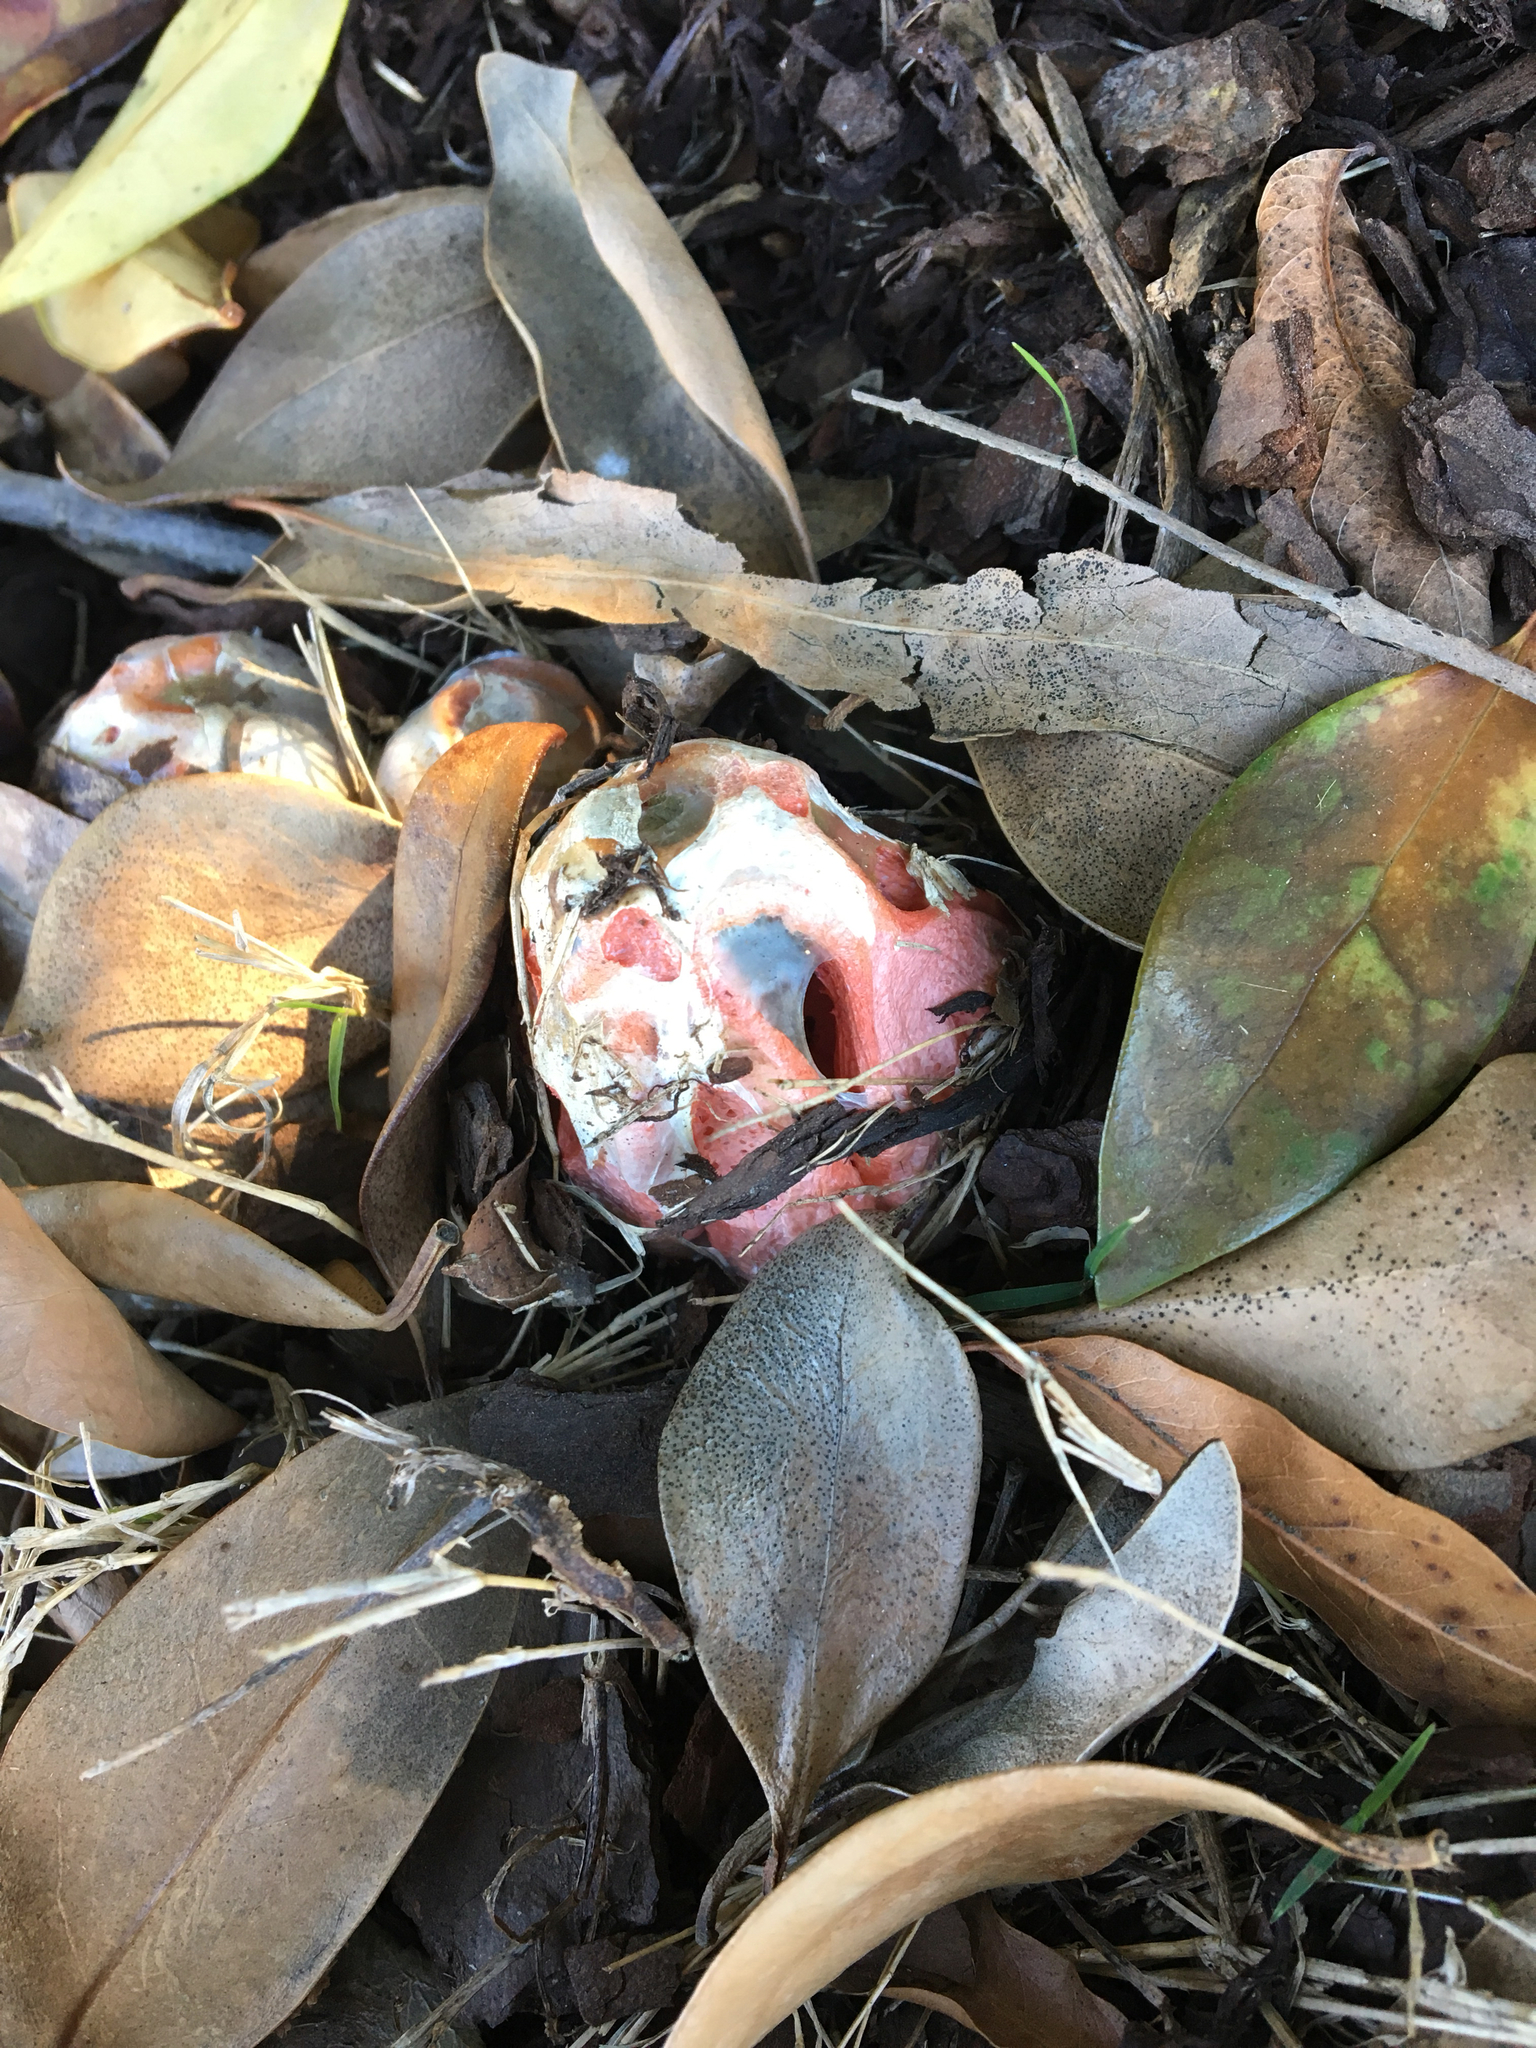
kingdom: Fungi
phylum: Basidiomycota
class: Agaricomycetes
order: Phallales
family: Phallaceae
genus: Clathrus
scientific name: Clathrus columnatus
